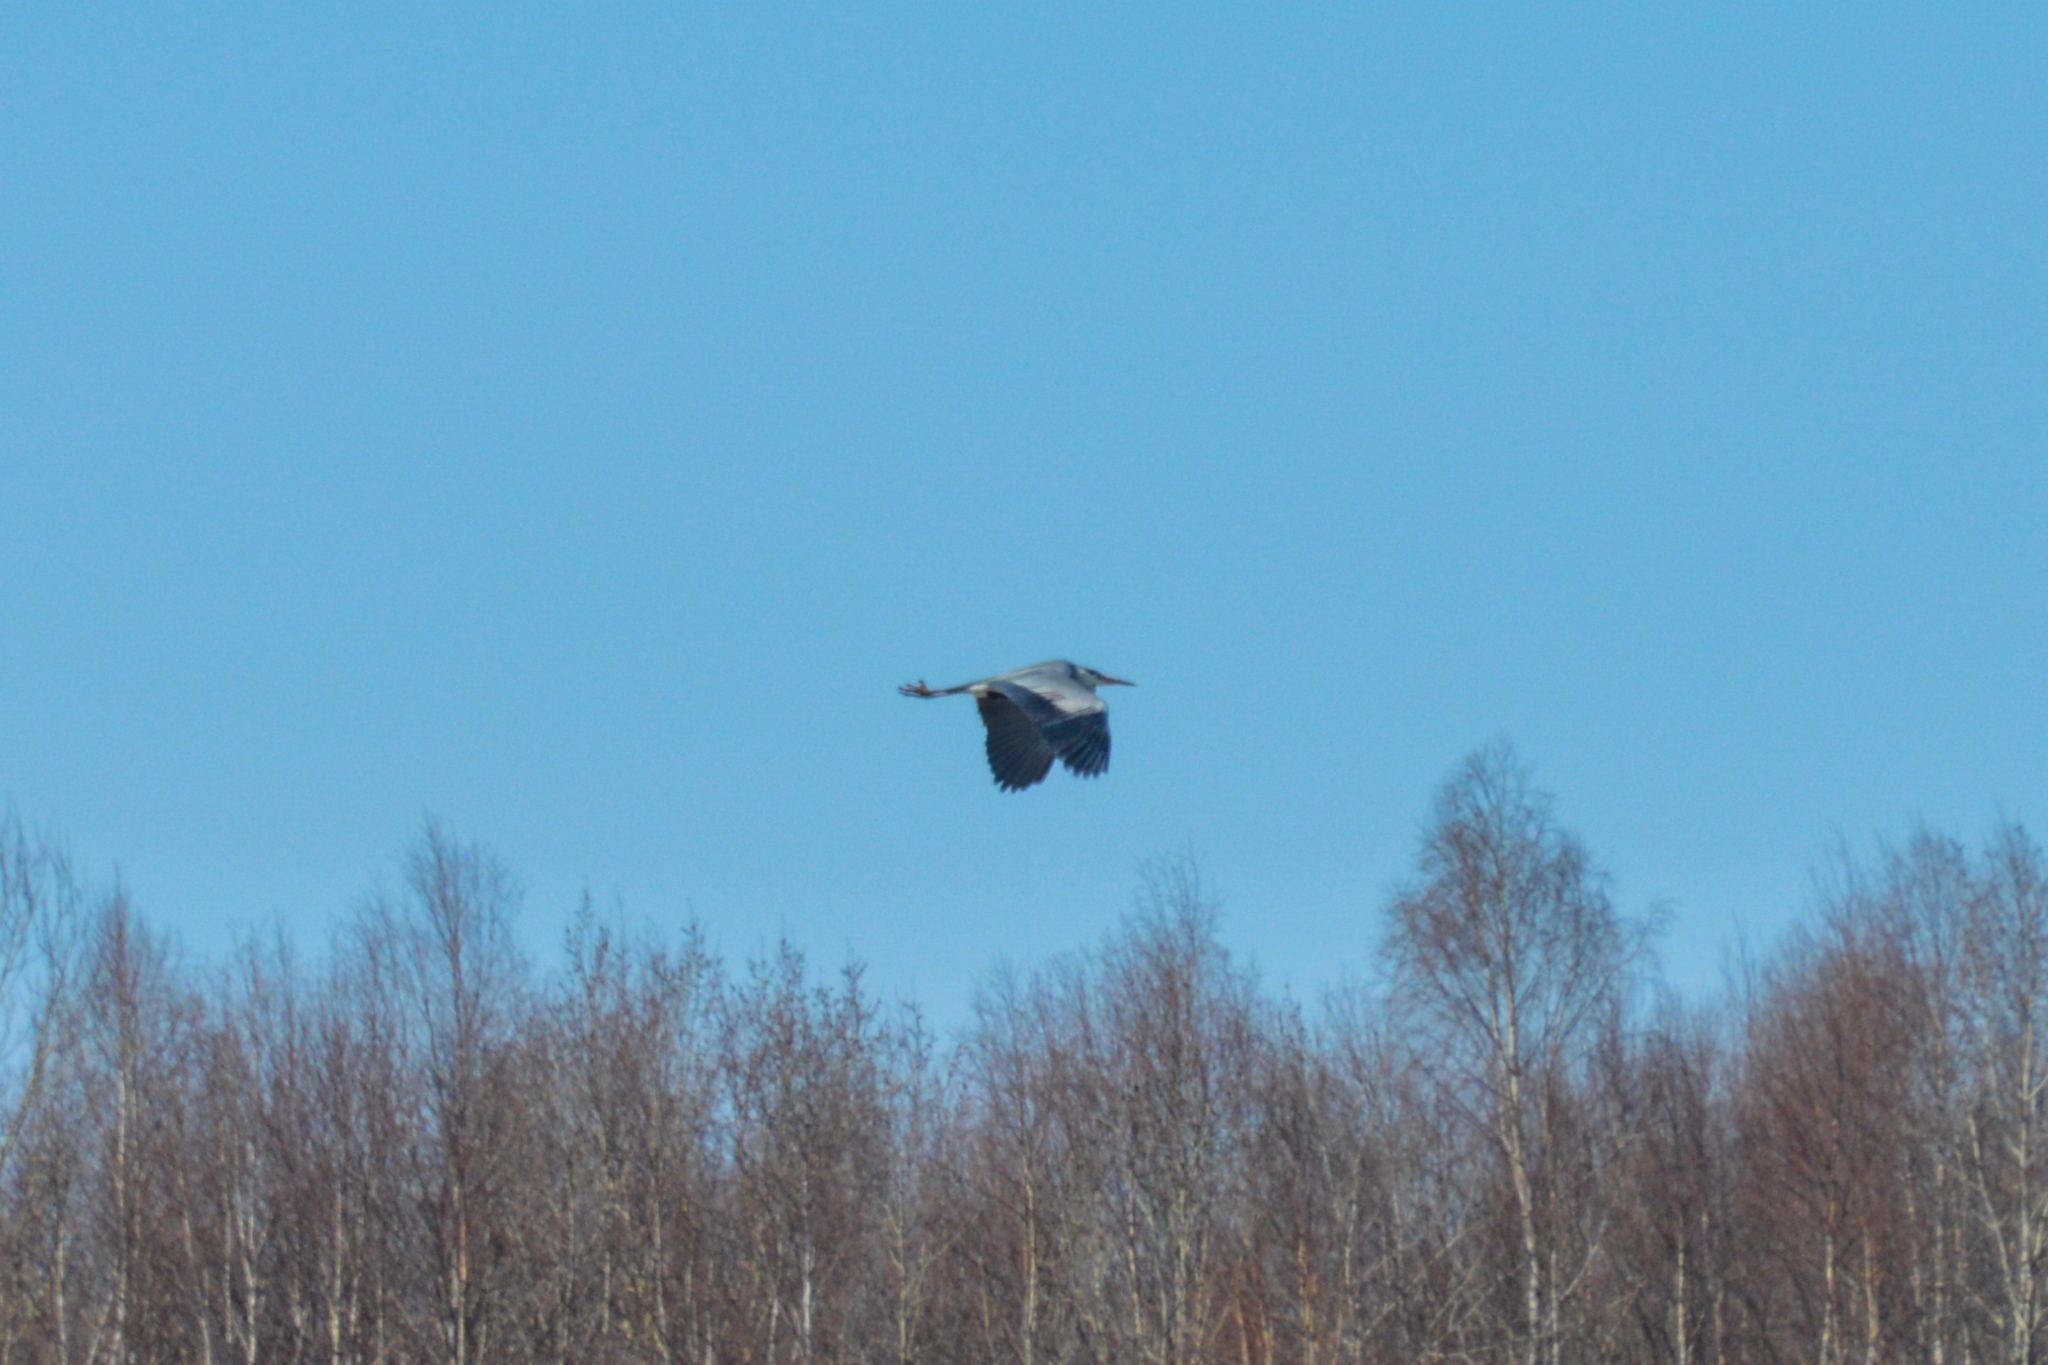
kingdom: Animalia
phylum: Chordata
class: Aves
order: Pelecaniformes
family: Ardeidae
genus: Ardea
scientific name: Ardea cinerea
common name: Grey heron
